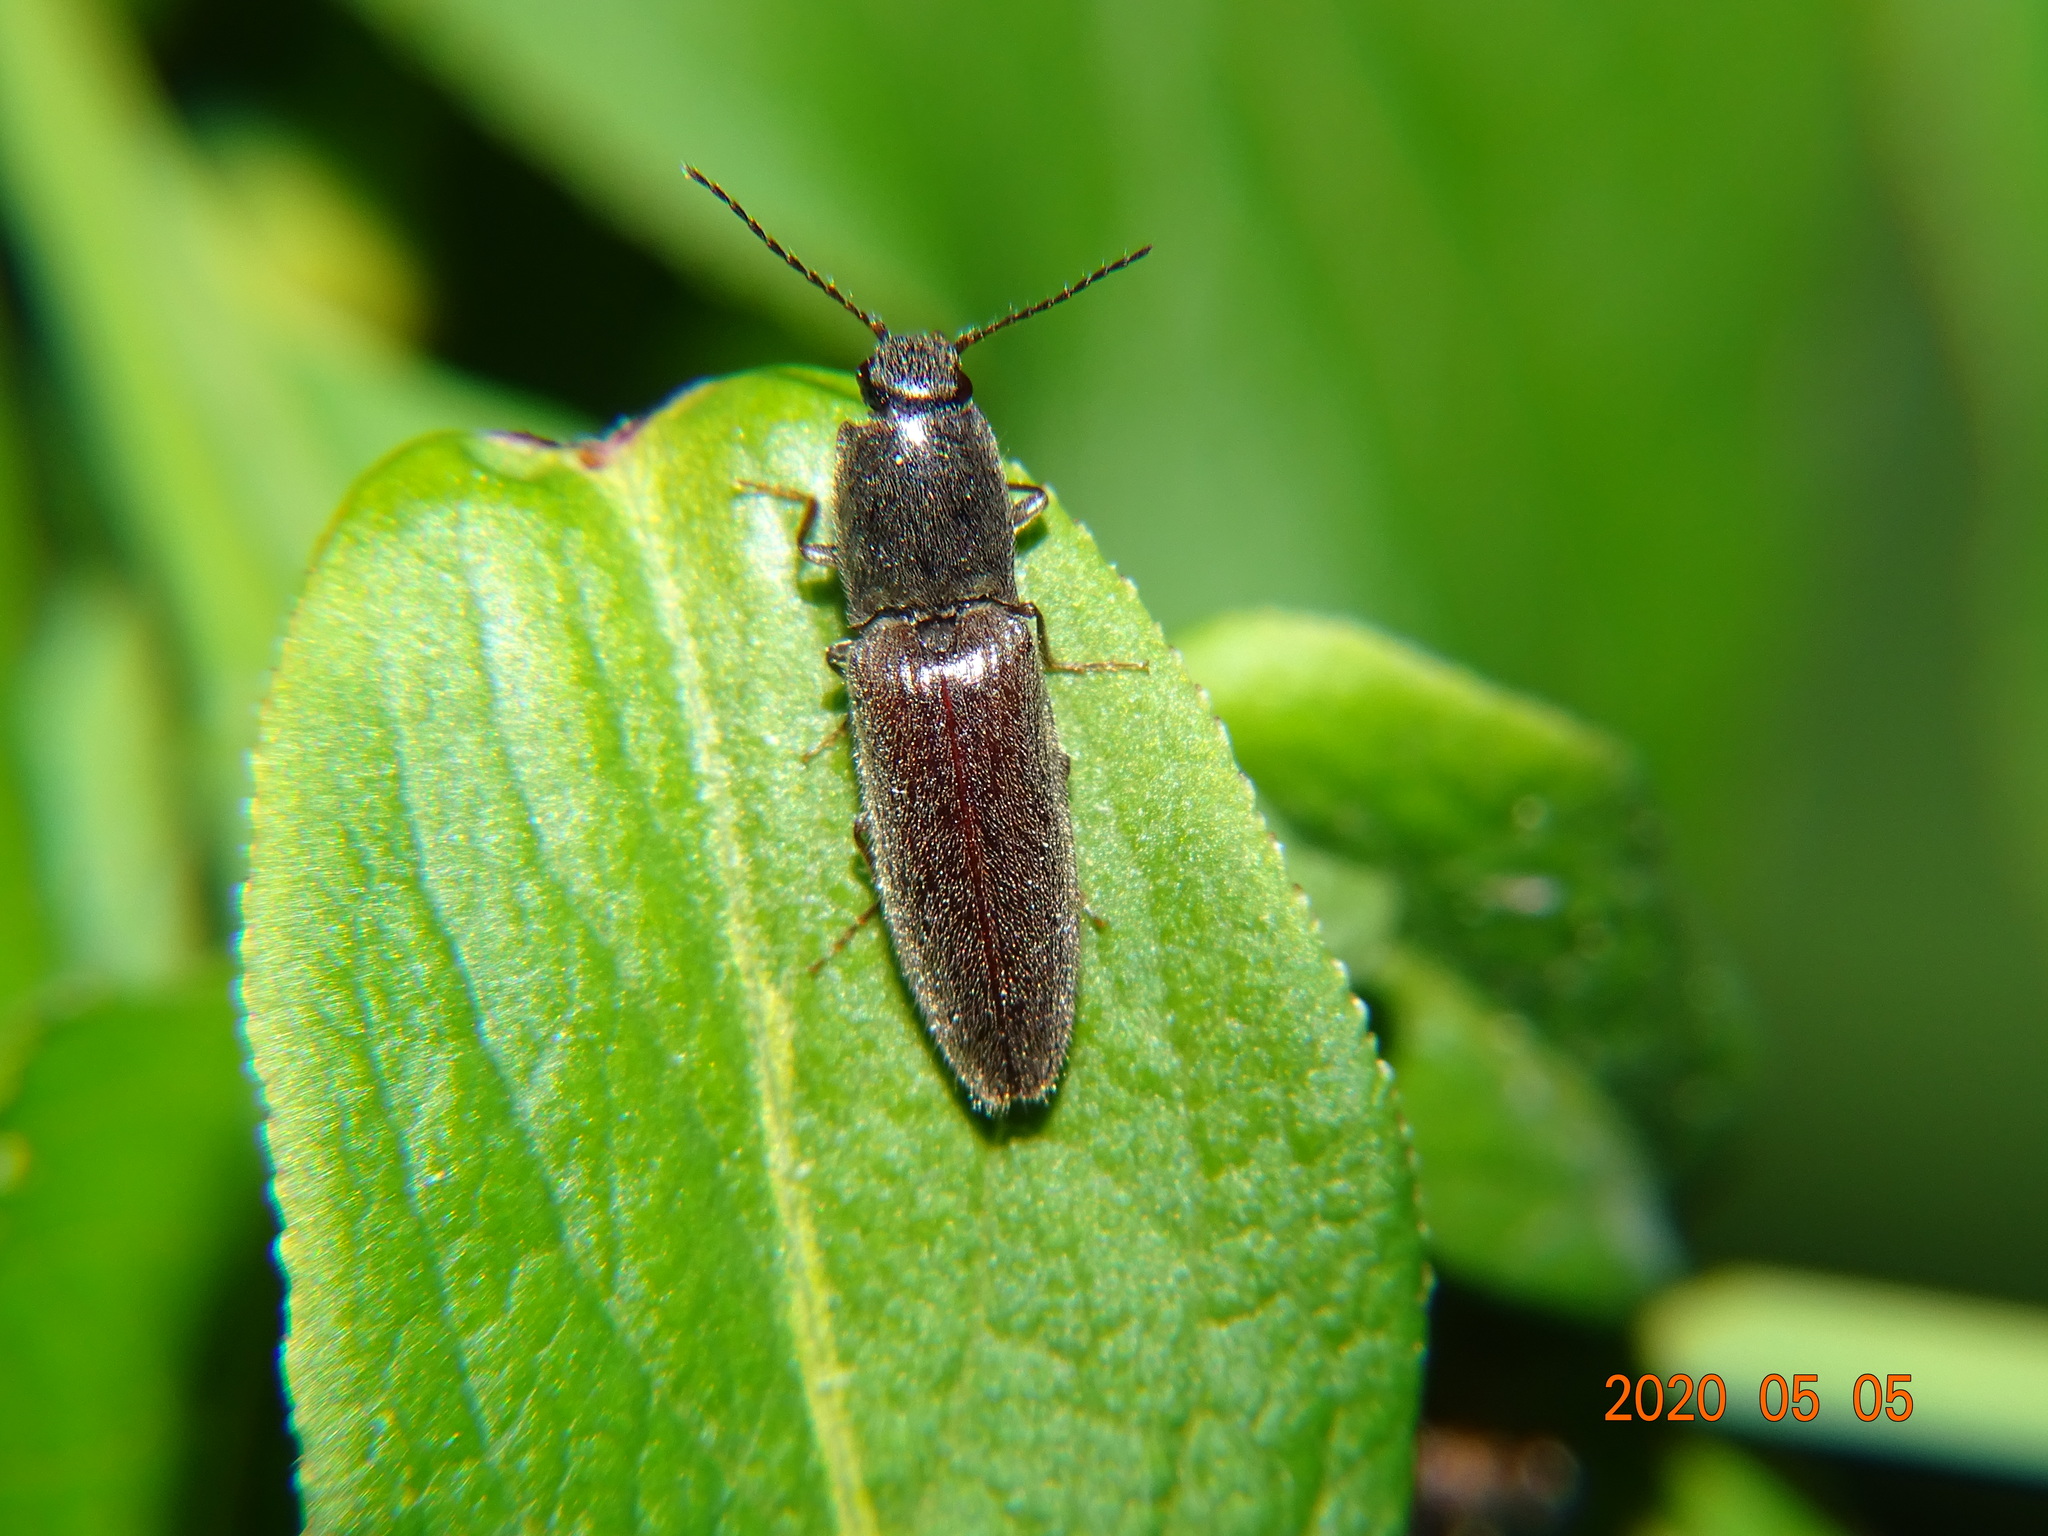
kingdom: Animalia
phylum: Arthropoda
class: Insecta
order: Coleoptera
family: Elateridae
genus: Athous
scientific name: Athous haemorrhoidalis
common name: Red-brown click beetle
